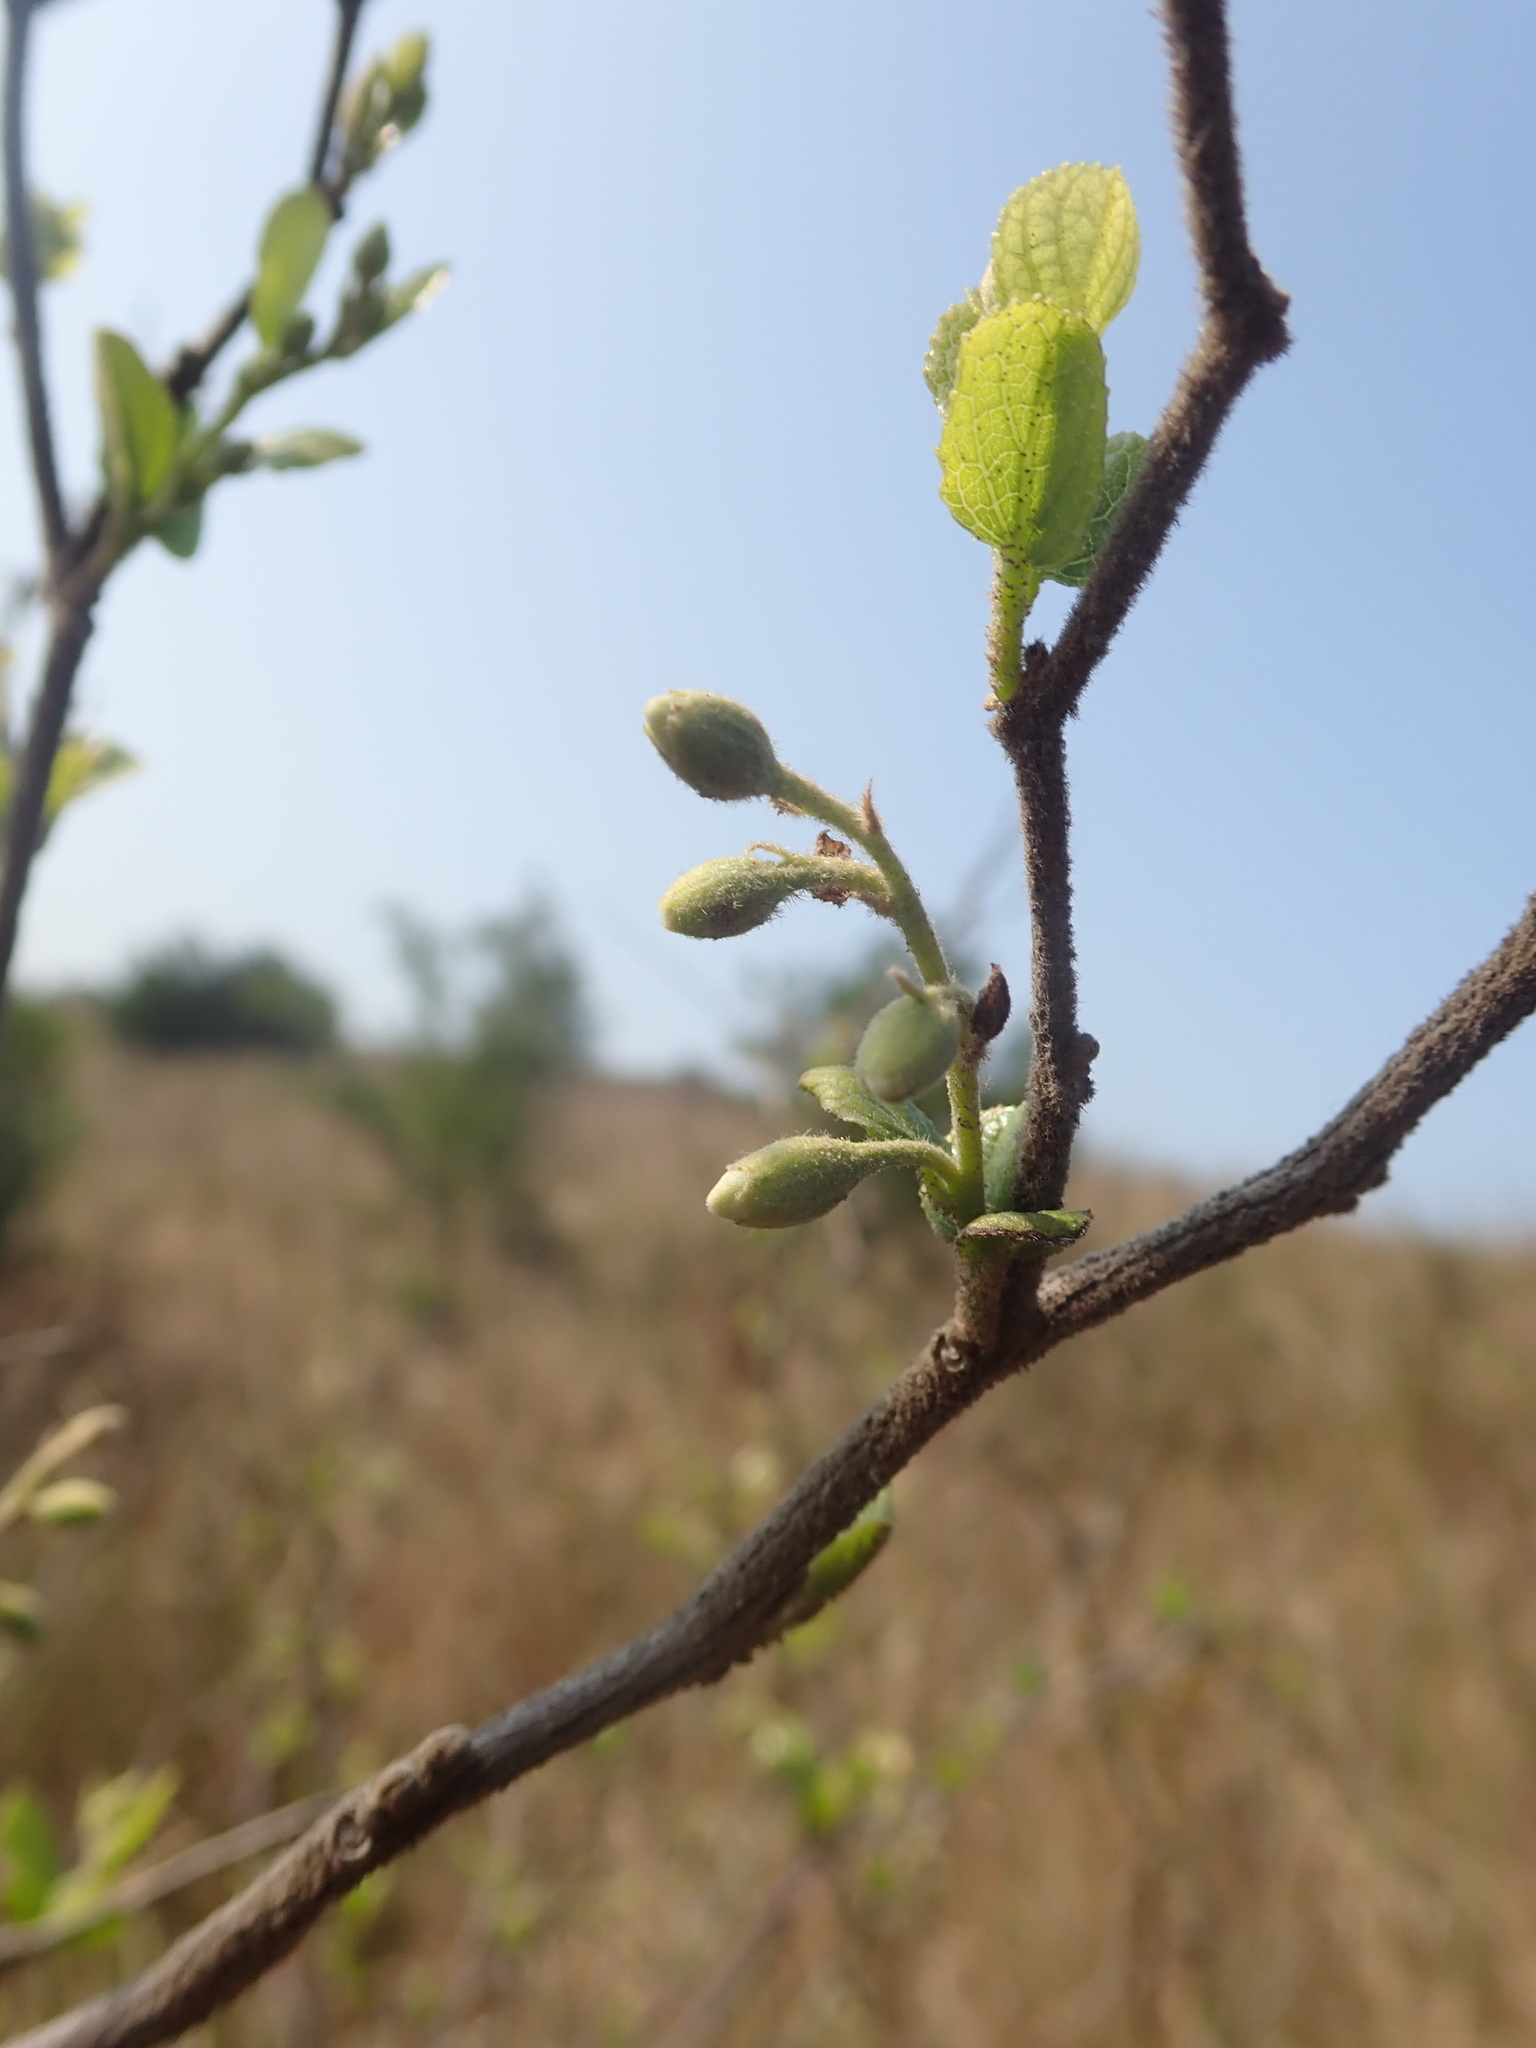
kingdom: Plantae
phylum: Tracheophyta
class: Magnoliopsida
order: Ericales
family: Styracaceae
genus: Styrax
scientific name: Styrax faberi
